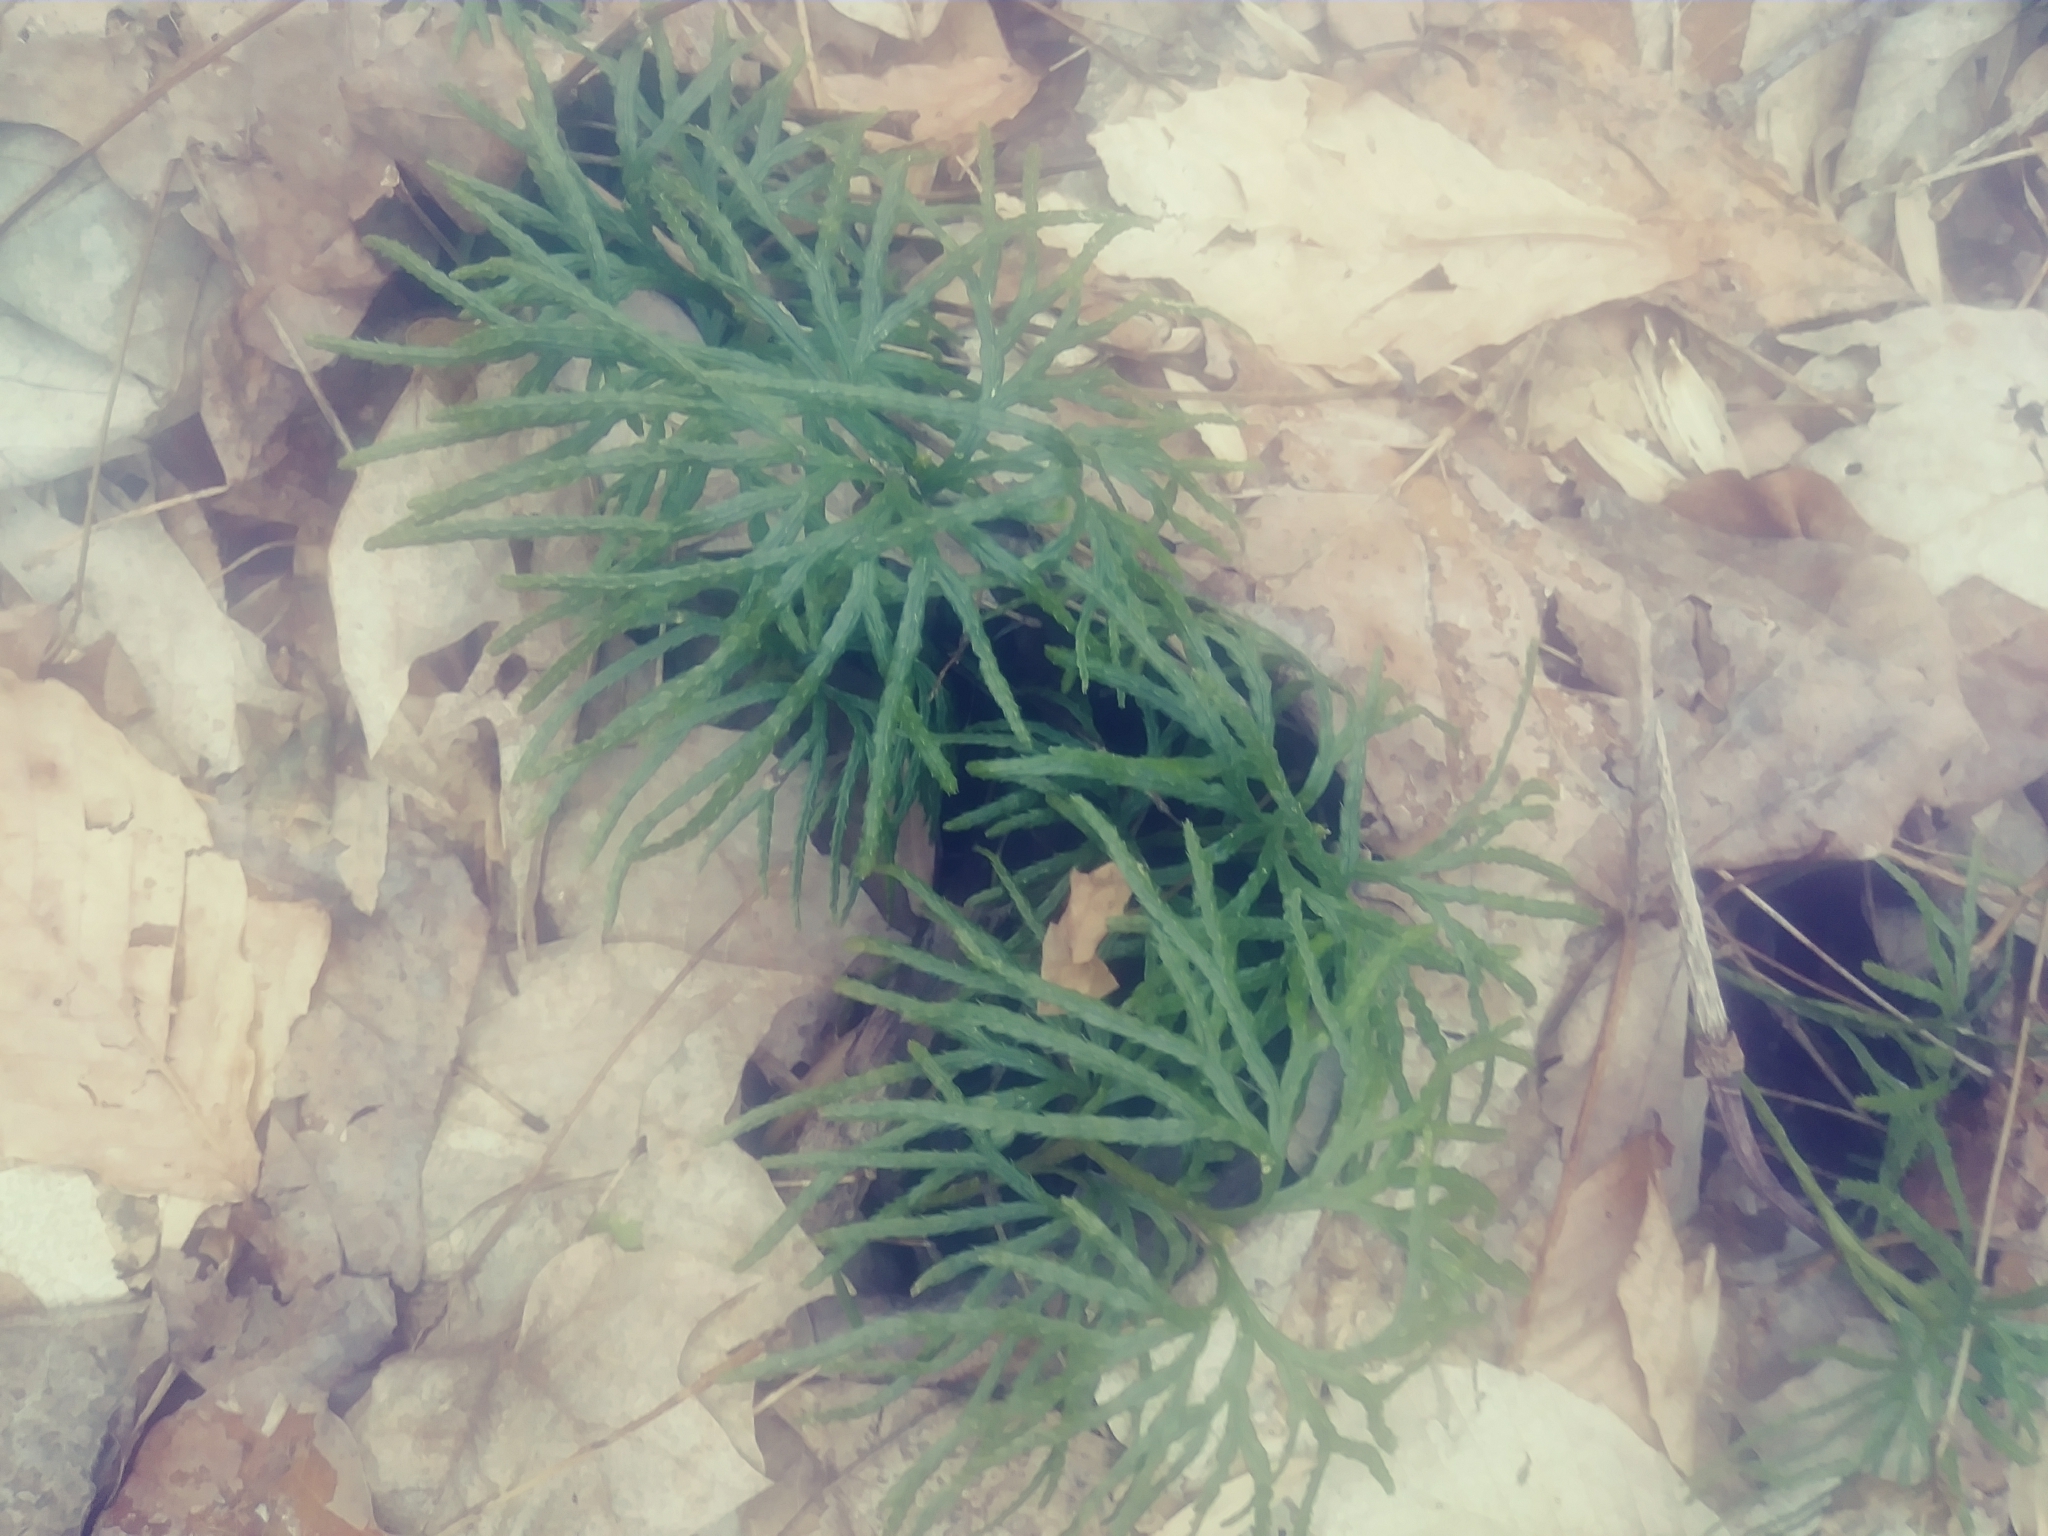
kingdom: Plantae
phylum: Tracheophyta
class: Lycopodiopsida
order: Lycopodiales
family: Lycopodiaceae
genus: Diphasiastrum
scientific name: Diphasiastrum digitatum
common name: Southern running-pine
